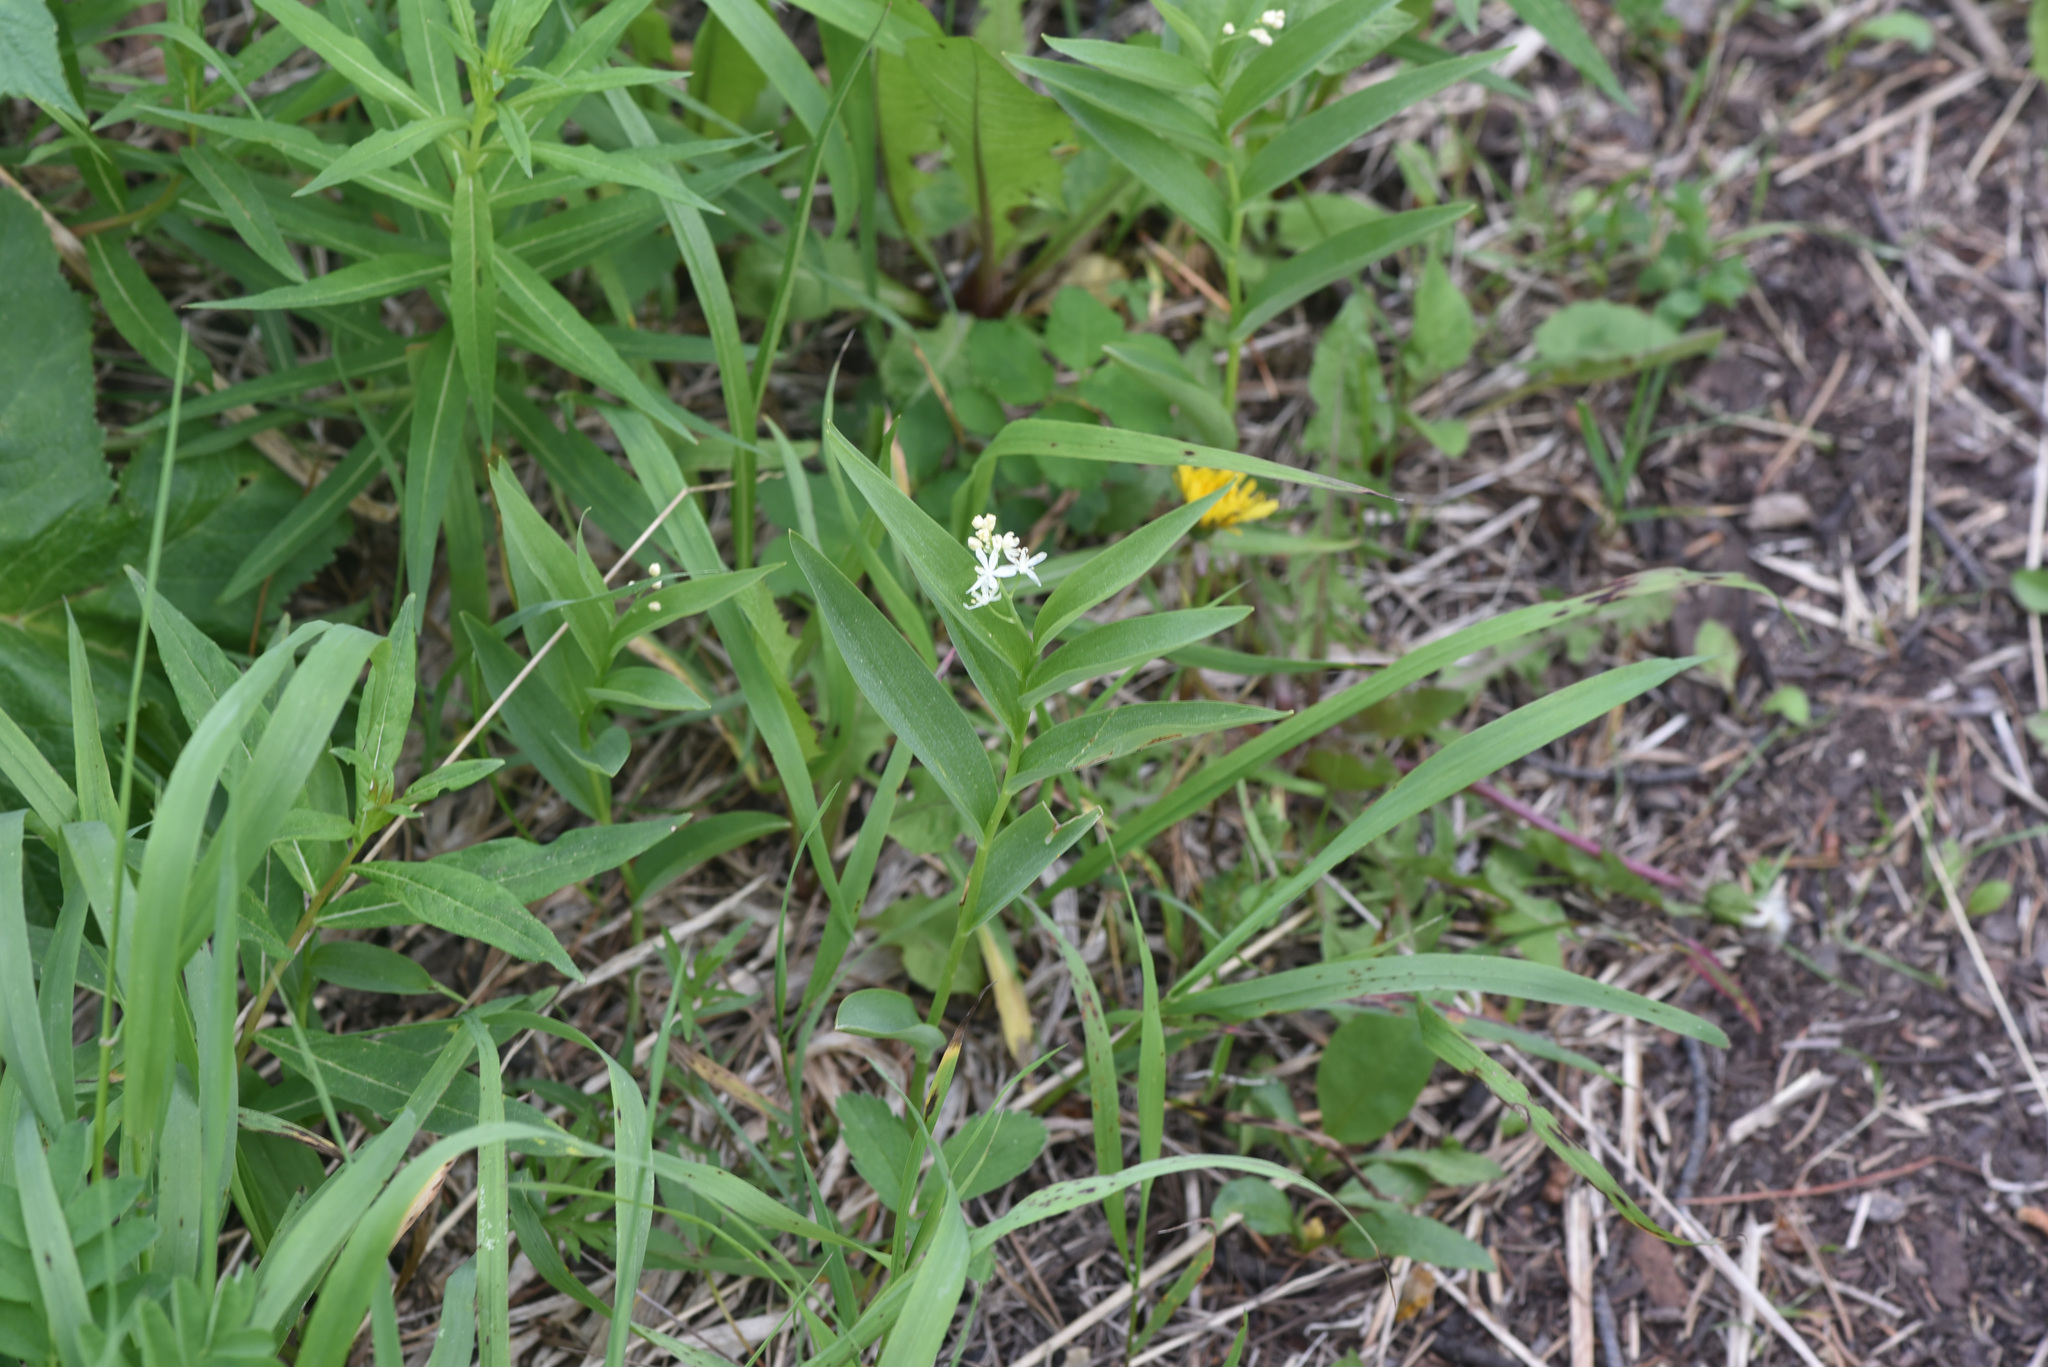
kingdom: Plantae
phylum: Tracheophyta
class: Liliopsida
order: Asparagales
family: Asparagaceae
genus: Maianthemum
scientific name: Maianthemum stellatum
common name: Little false solomon's seal
